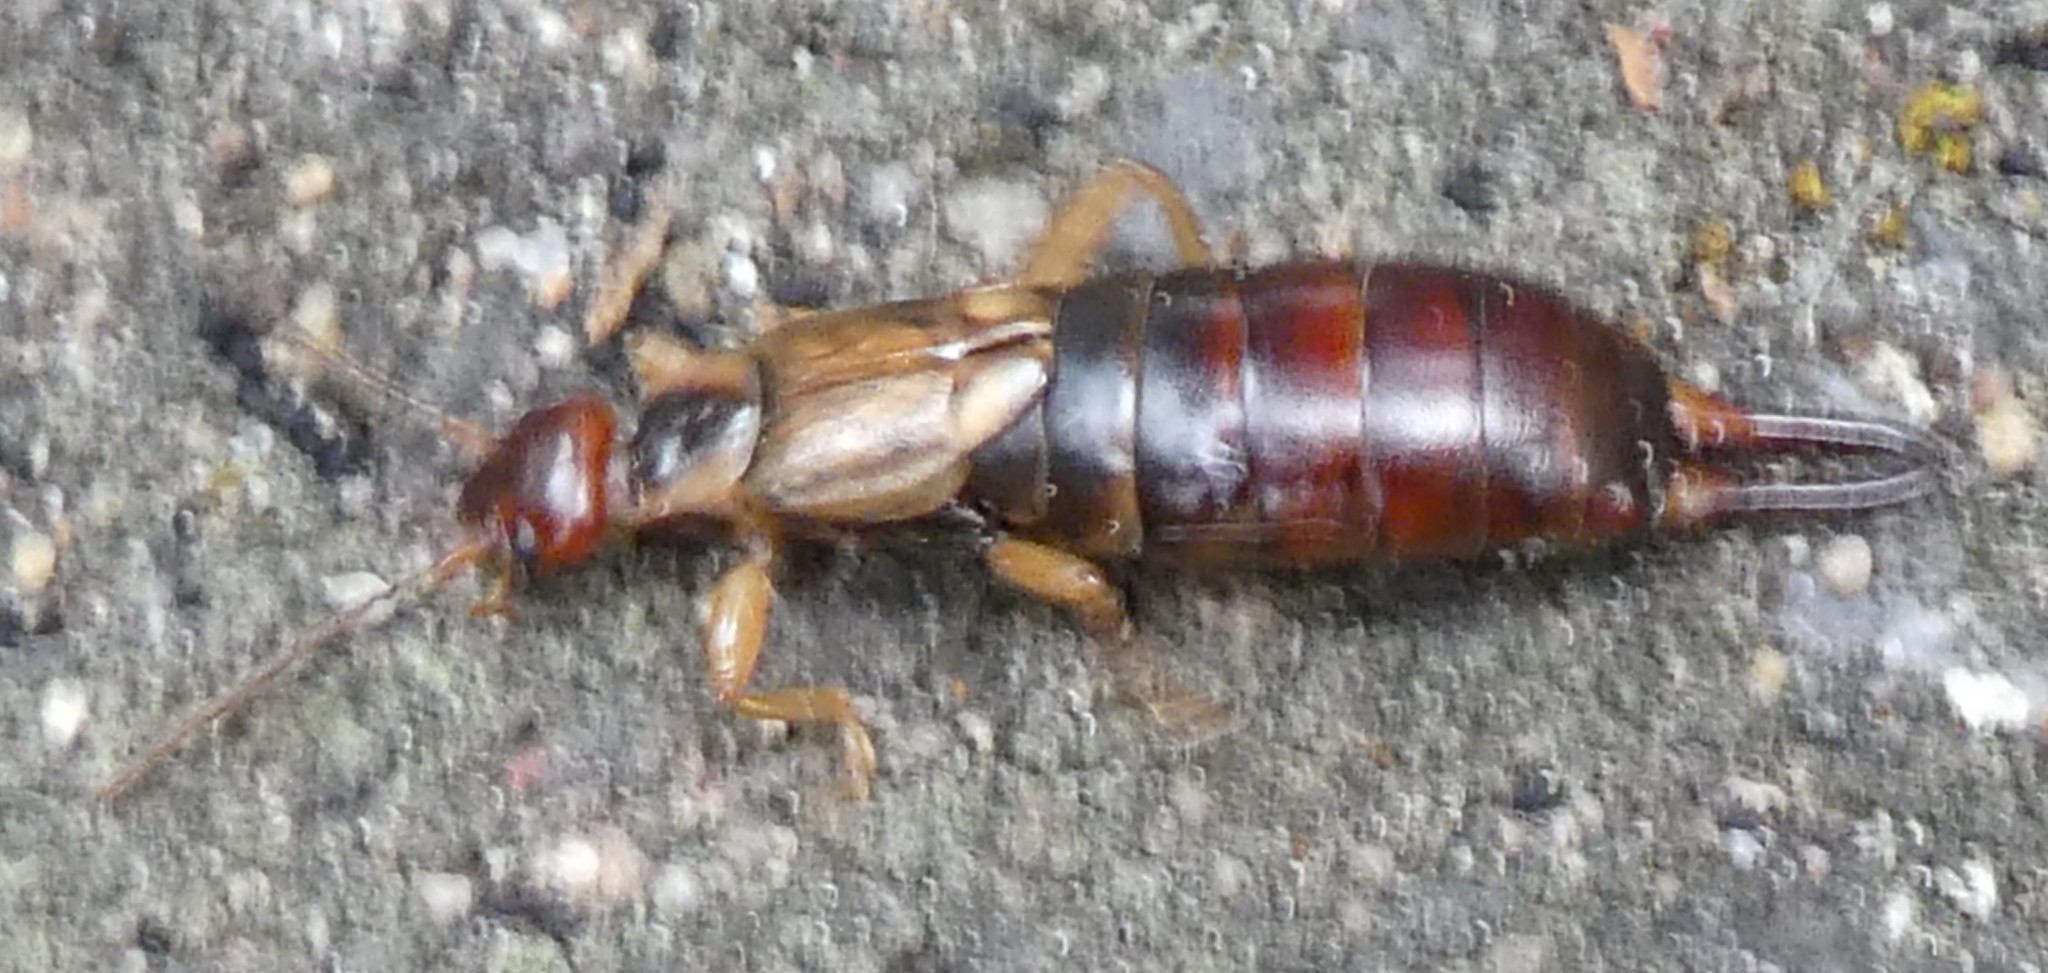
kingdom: Animalia
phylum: Arthropoda
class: Insecta
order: Dermaptera
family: Forficulidae
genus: Forficula
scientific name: Forficula
